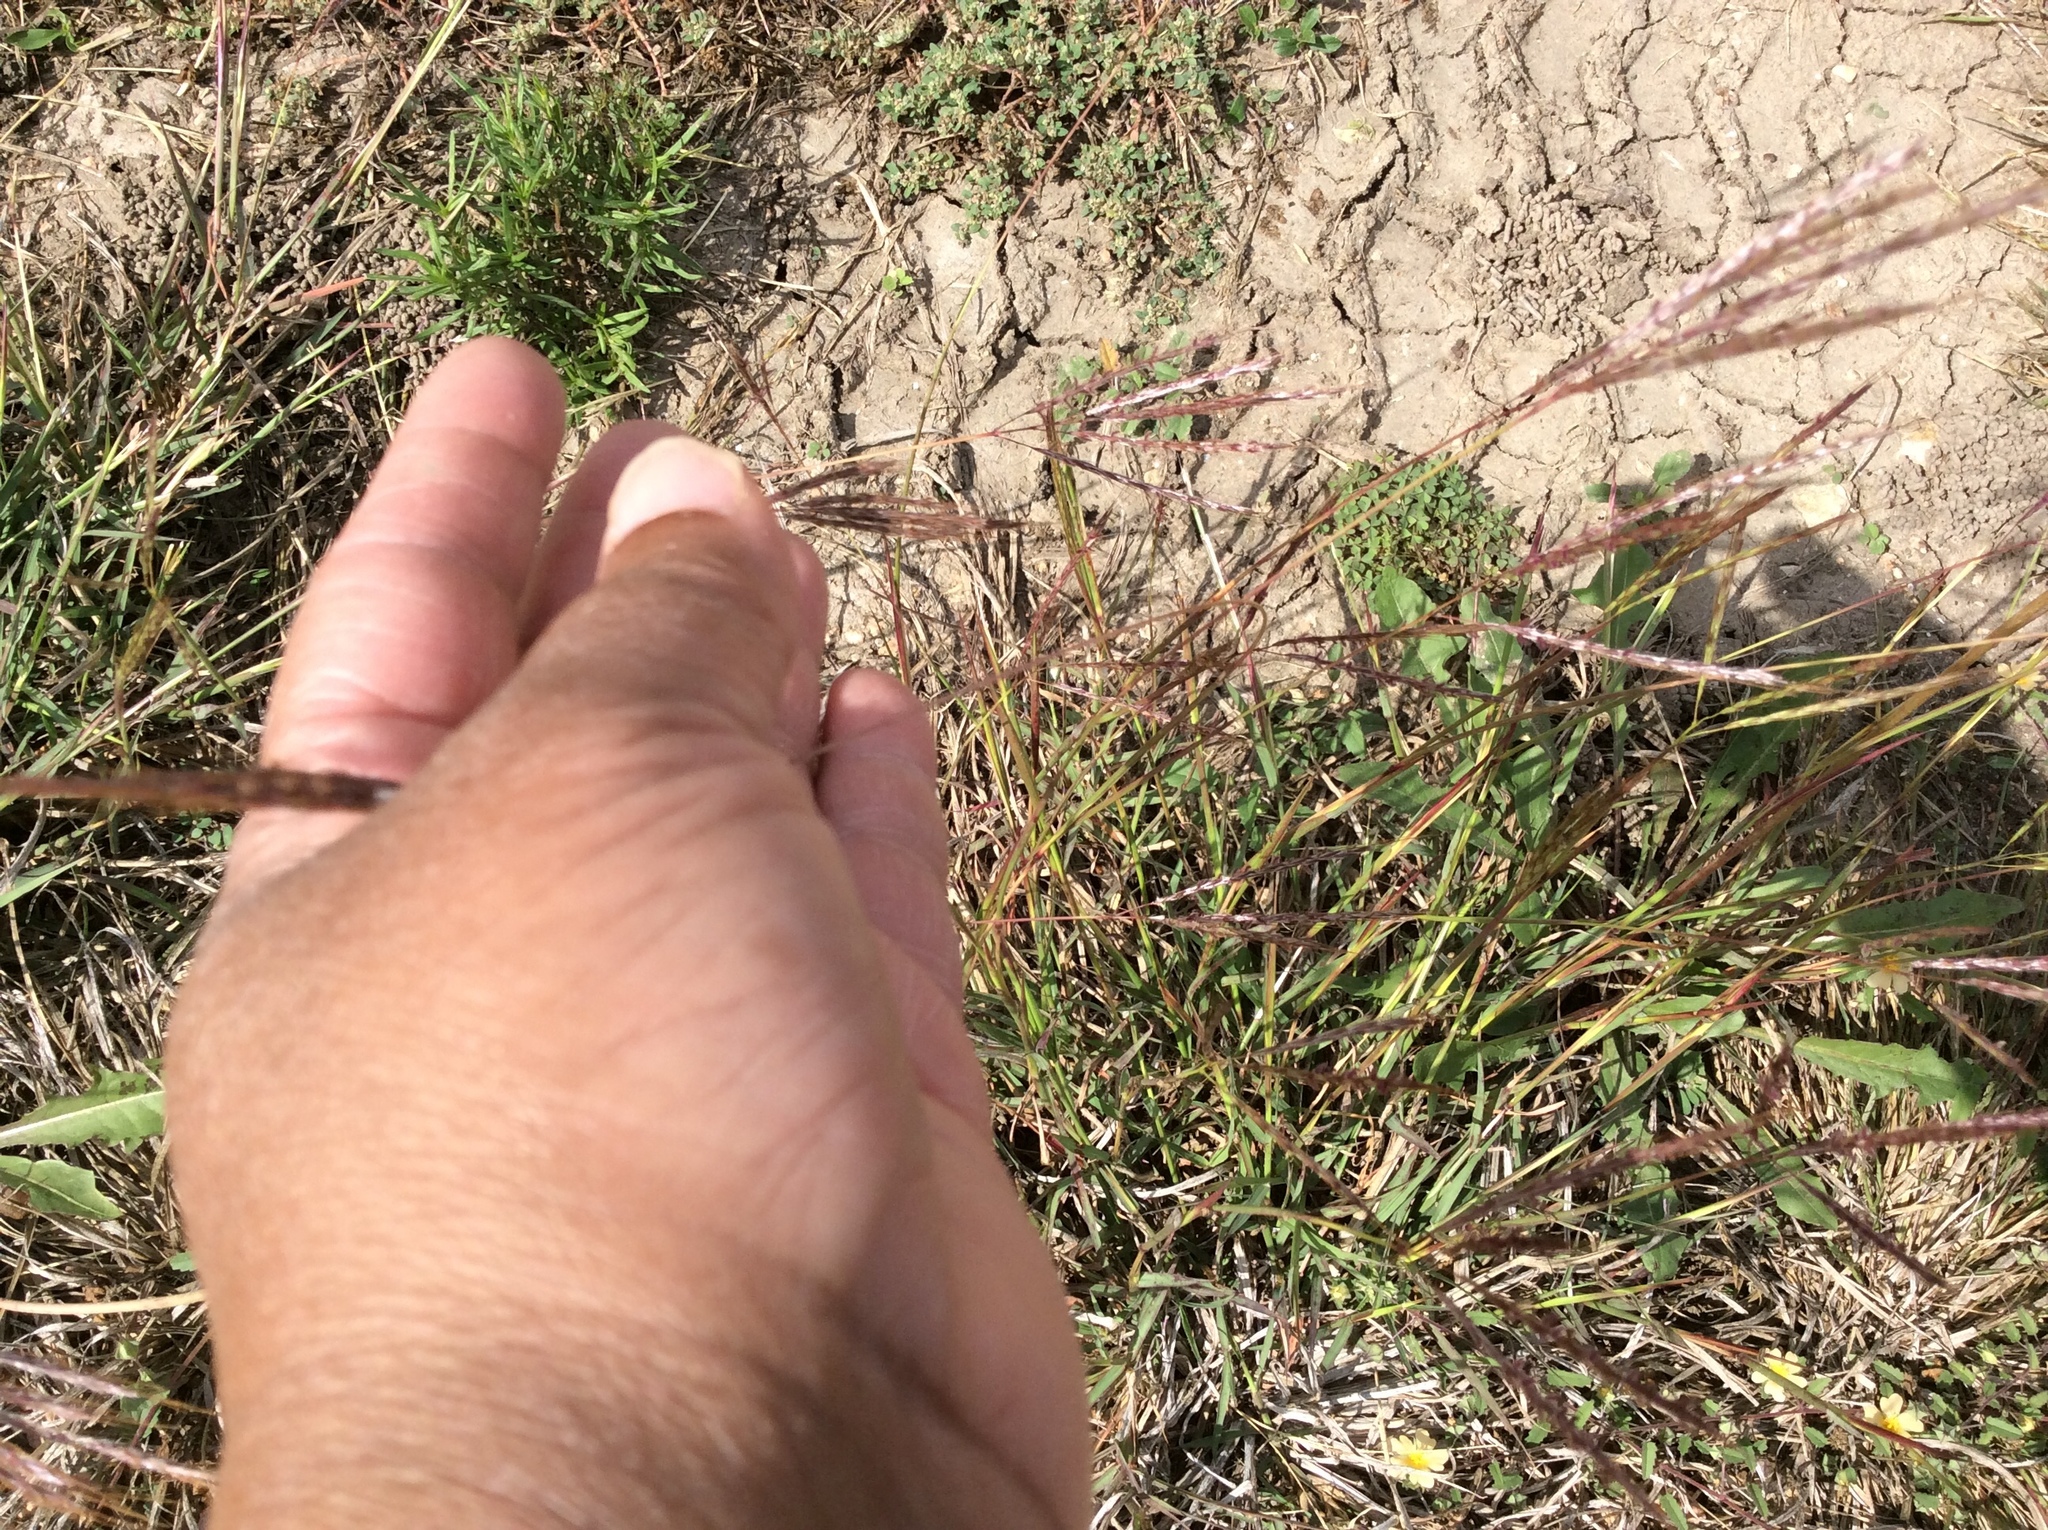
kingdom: Plantae
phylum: Tracheophyta
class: Liliopsida
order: Poales
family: Poaceae
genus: Bothriochloa
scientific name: Bothriochloa ischaemum
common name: Yellow bluestem
